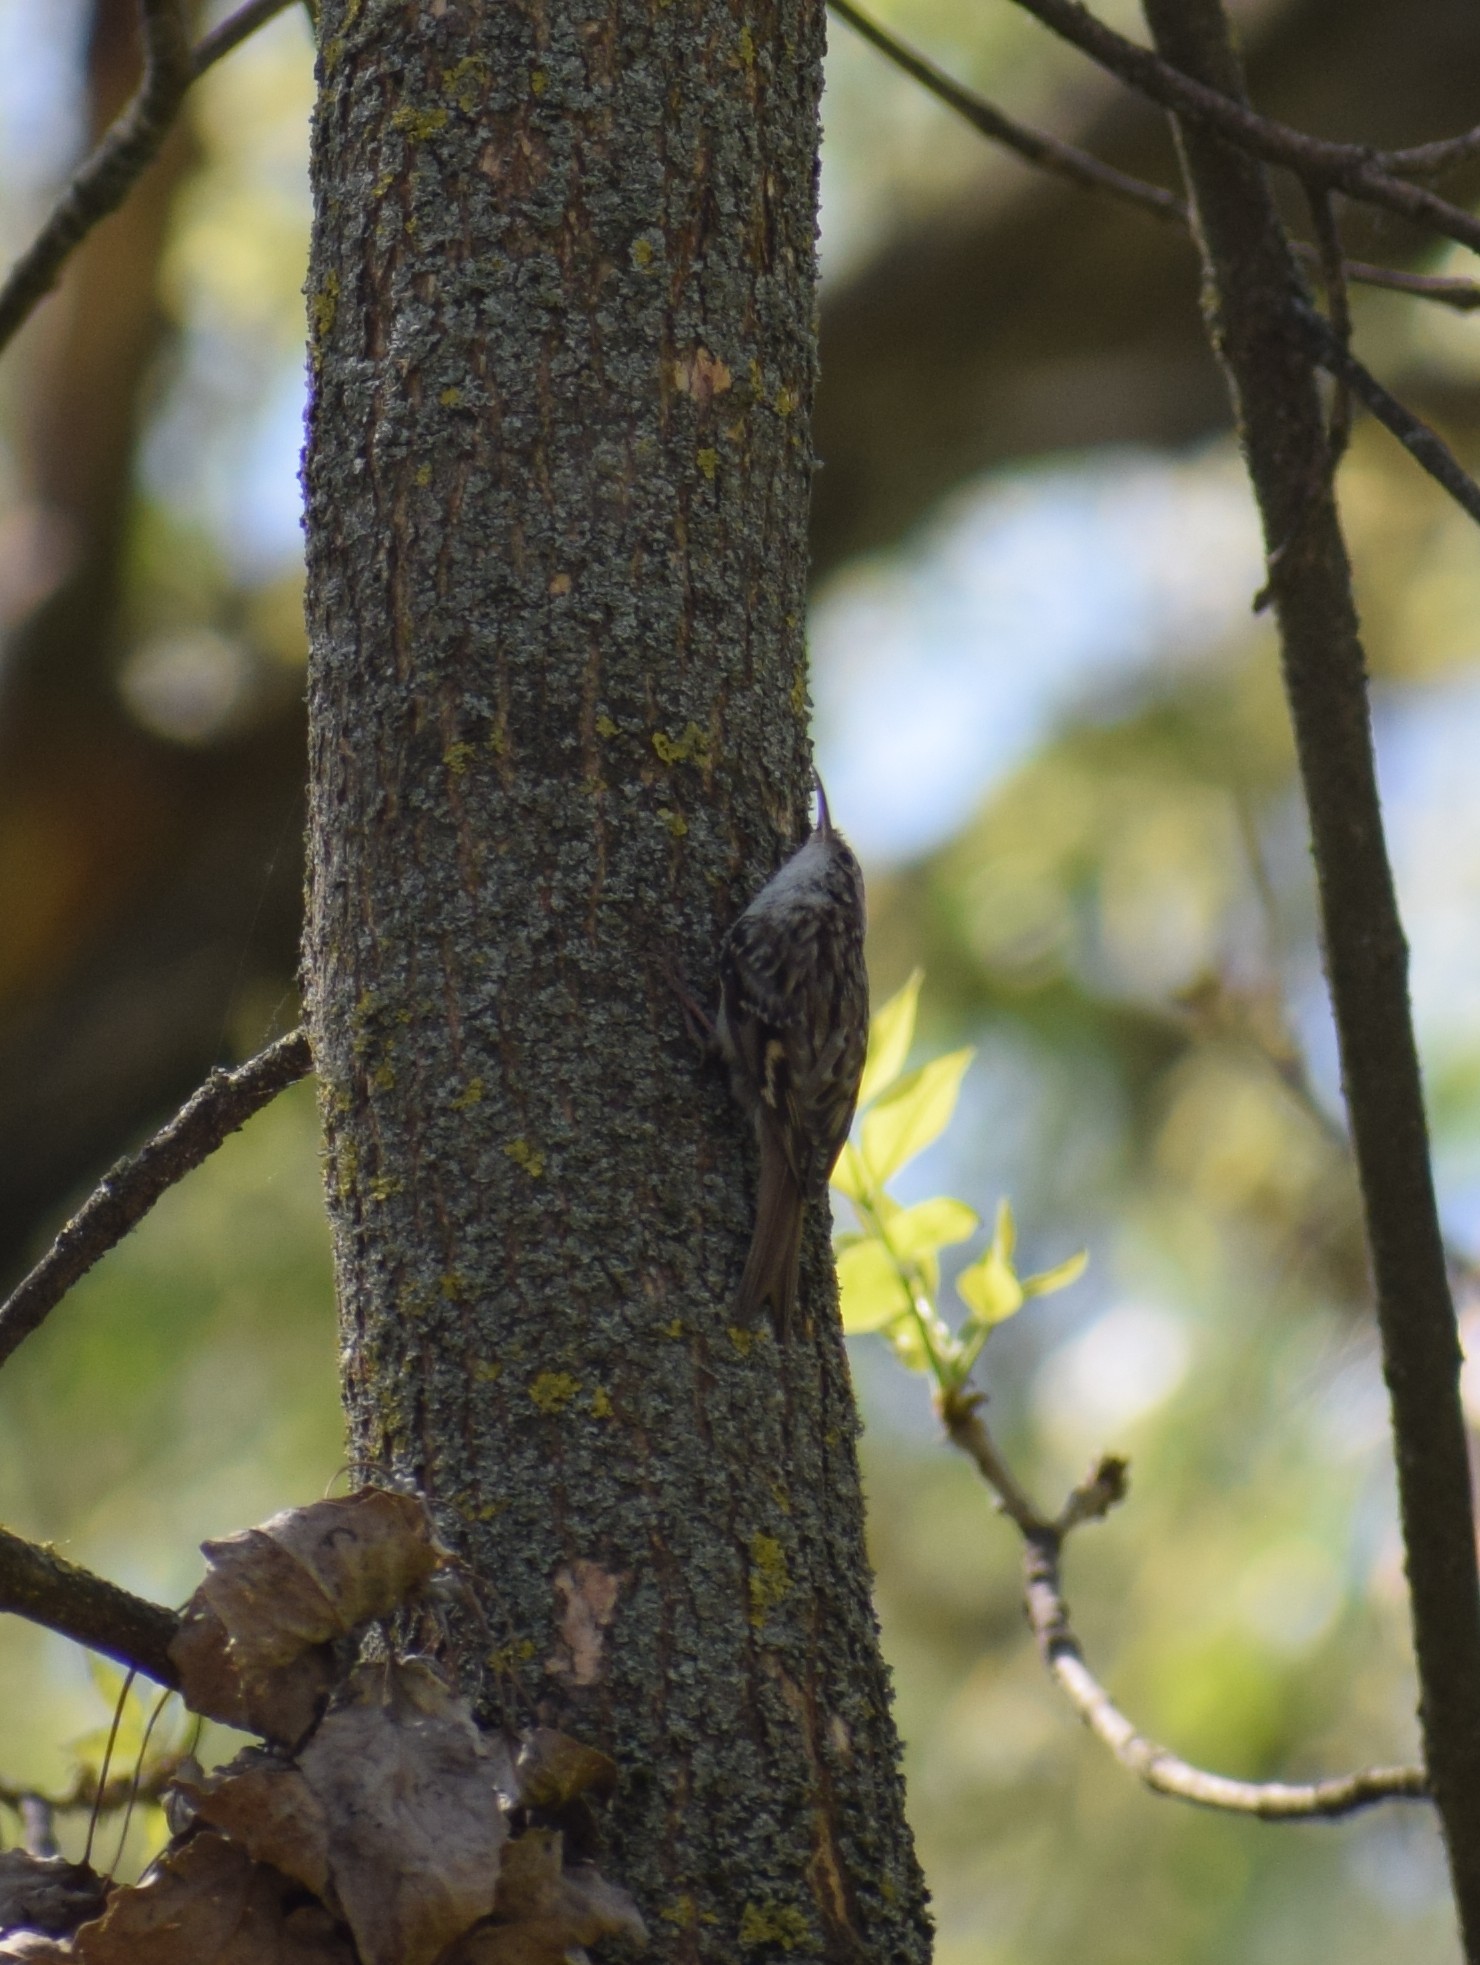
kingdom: Animalia
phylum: Chordata
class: Aves
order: Passeriformes
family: Certhiidae
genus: Certhia
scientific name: Certhia brachydactyla
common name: Short-toed treecreeper
